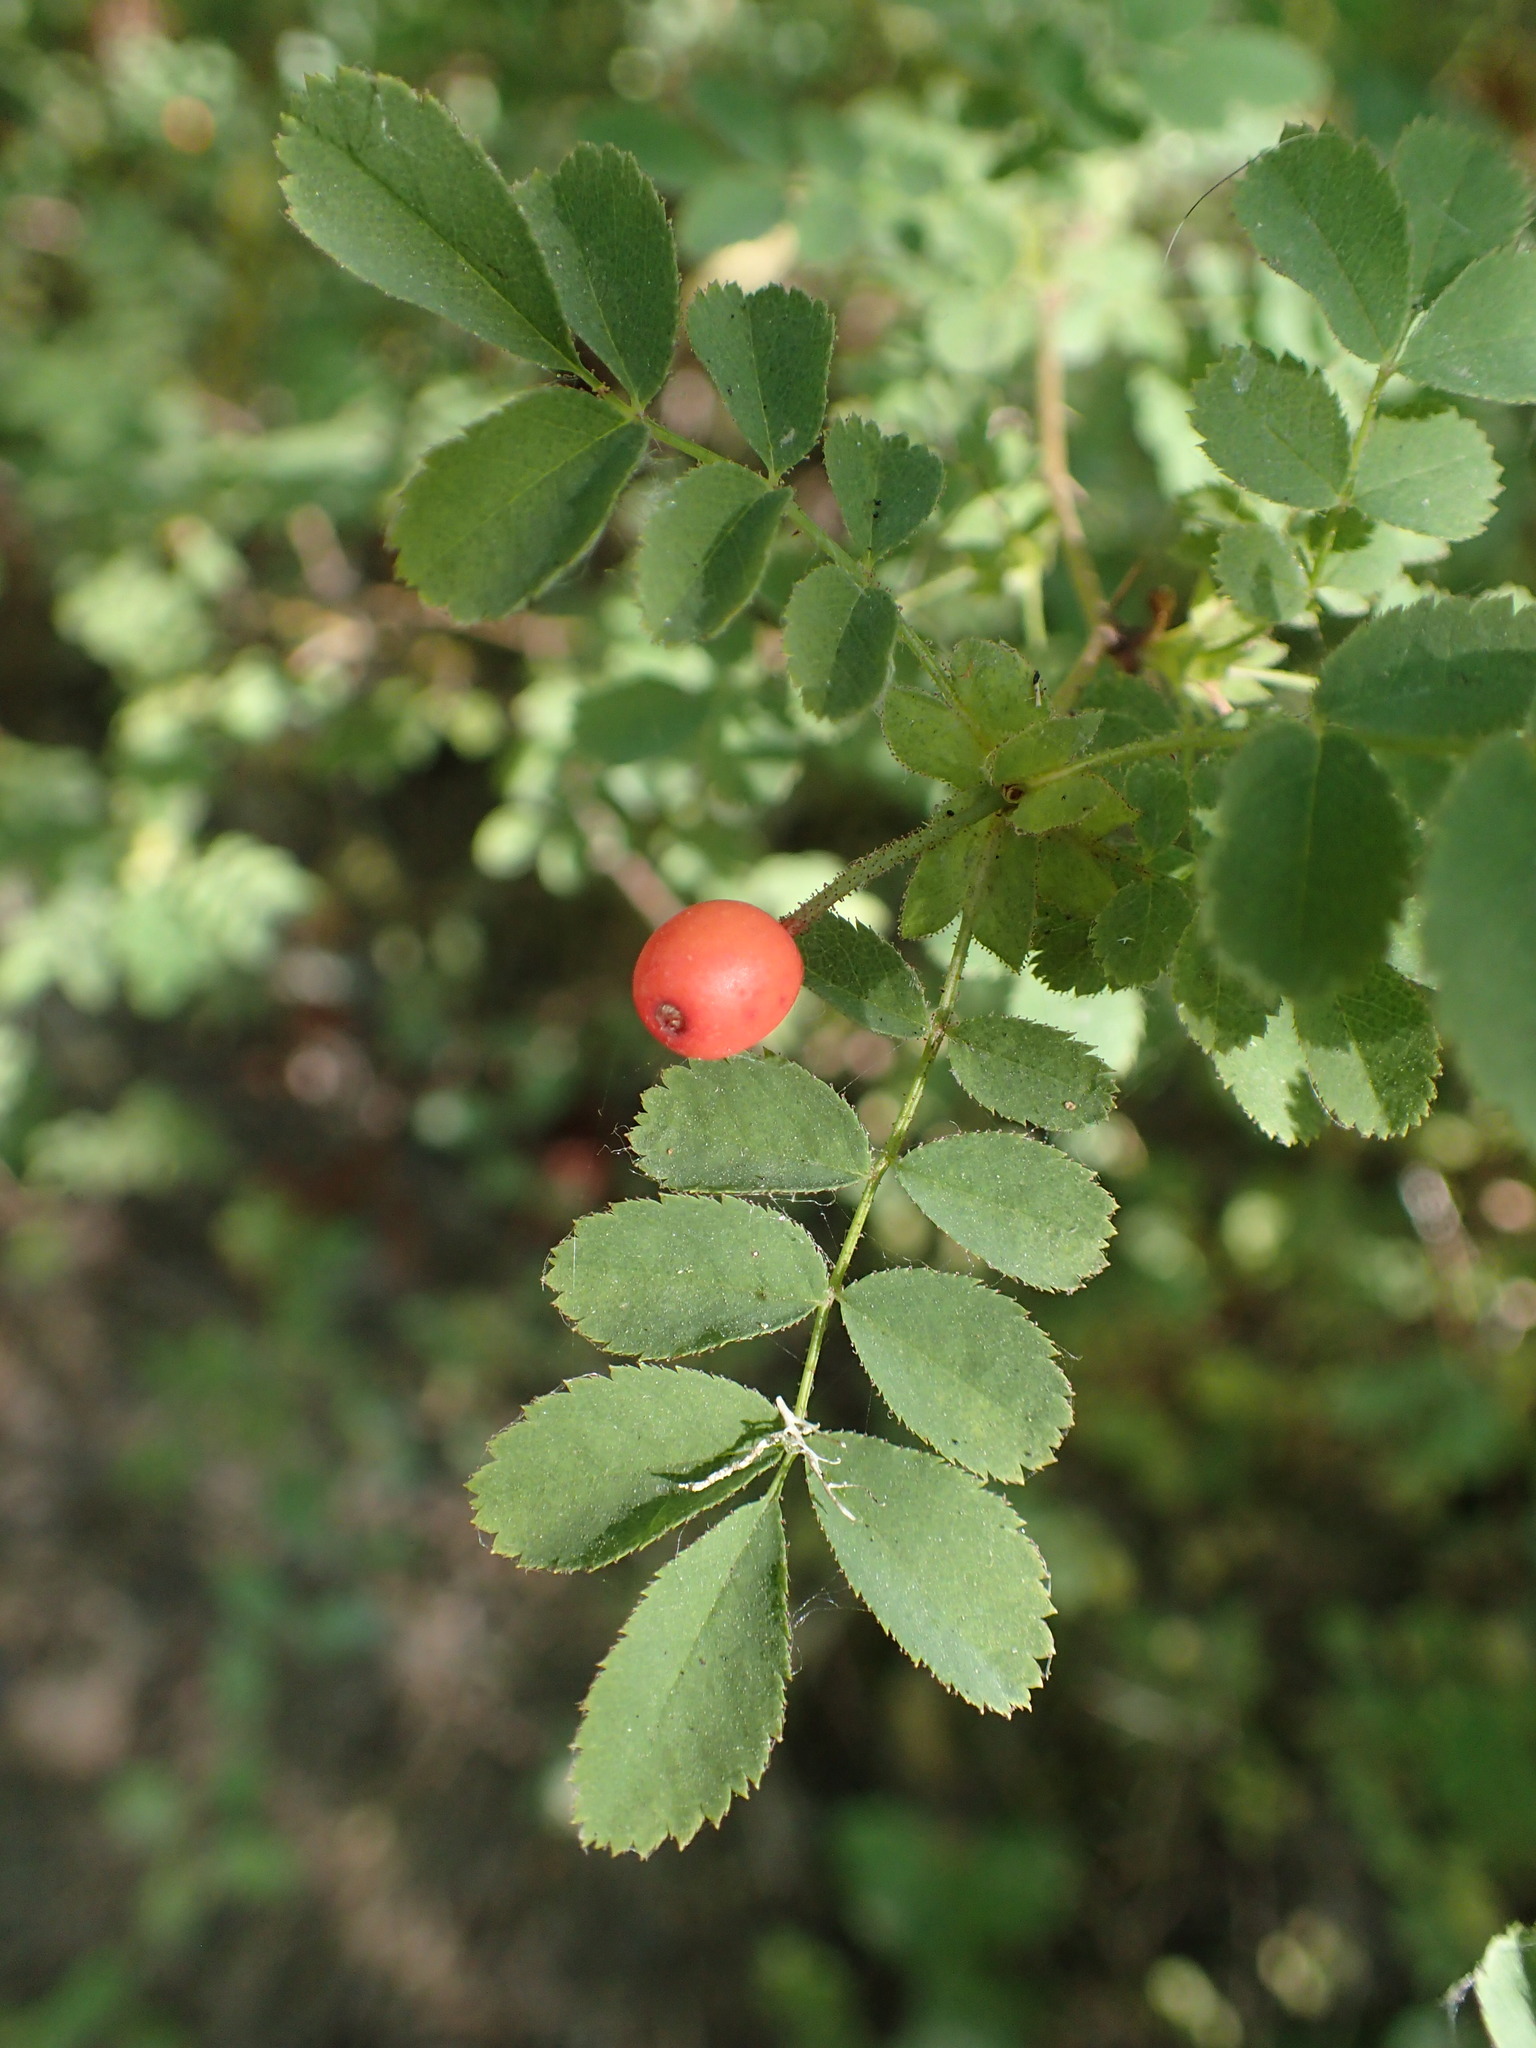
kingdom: Plantae
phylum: Tracheophyta
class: Magnoliopsida
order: Rosales
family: Rosaceae
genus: Rosa
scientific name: Rosa gymnocarpa
